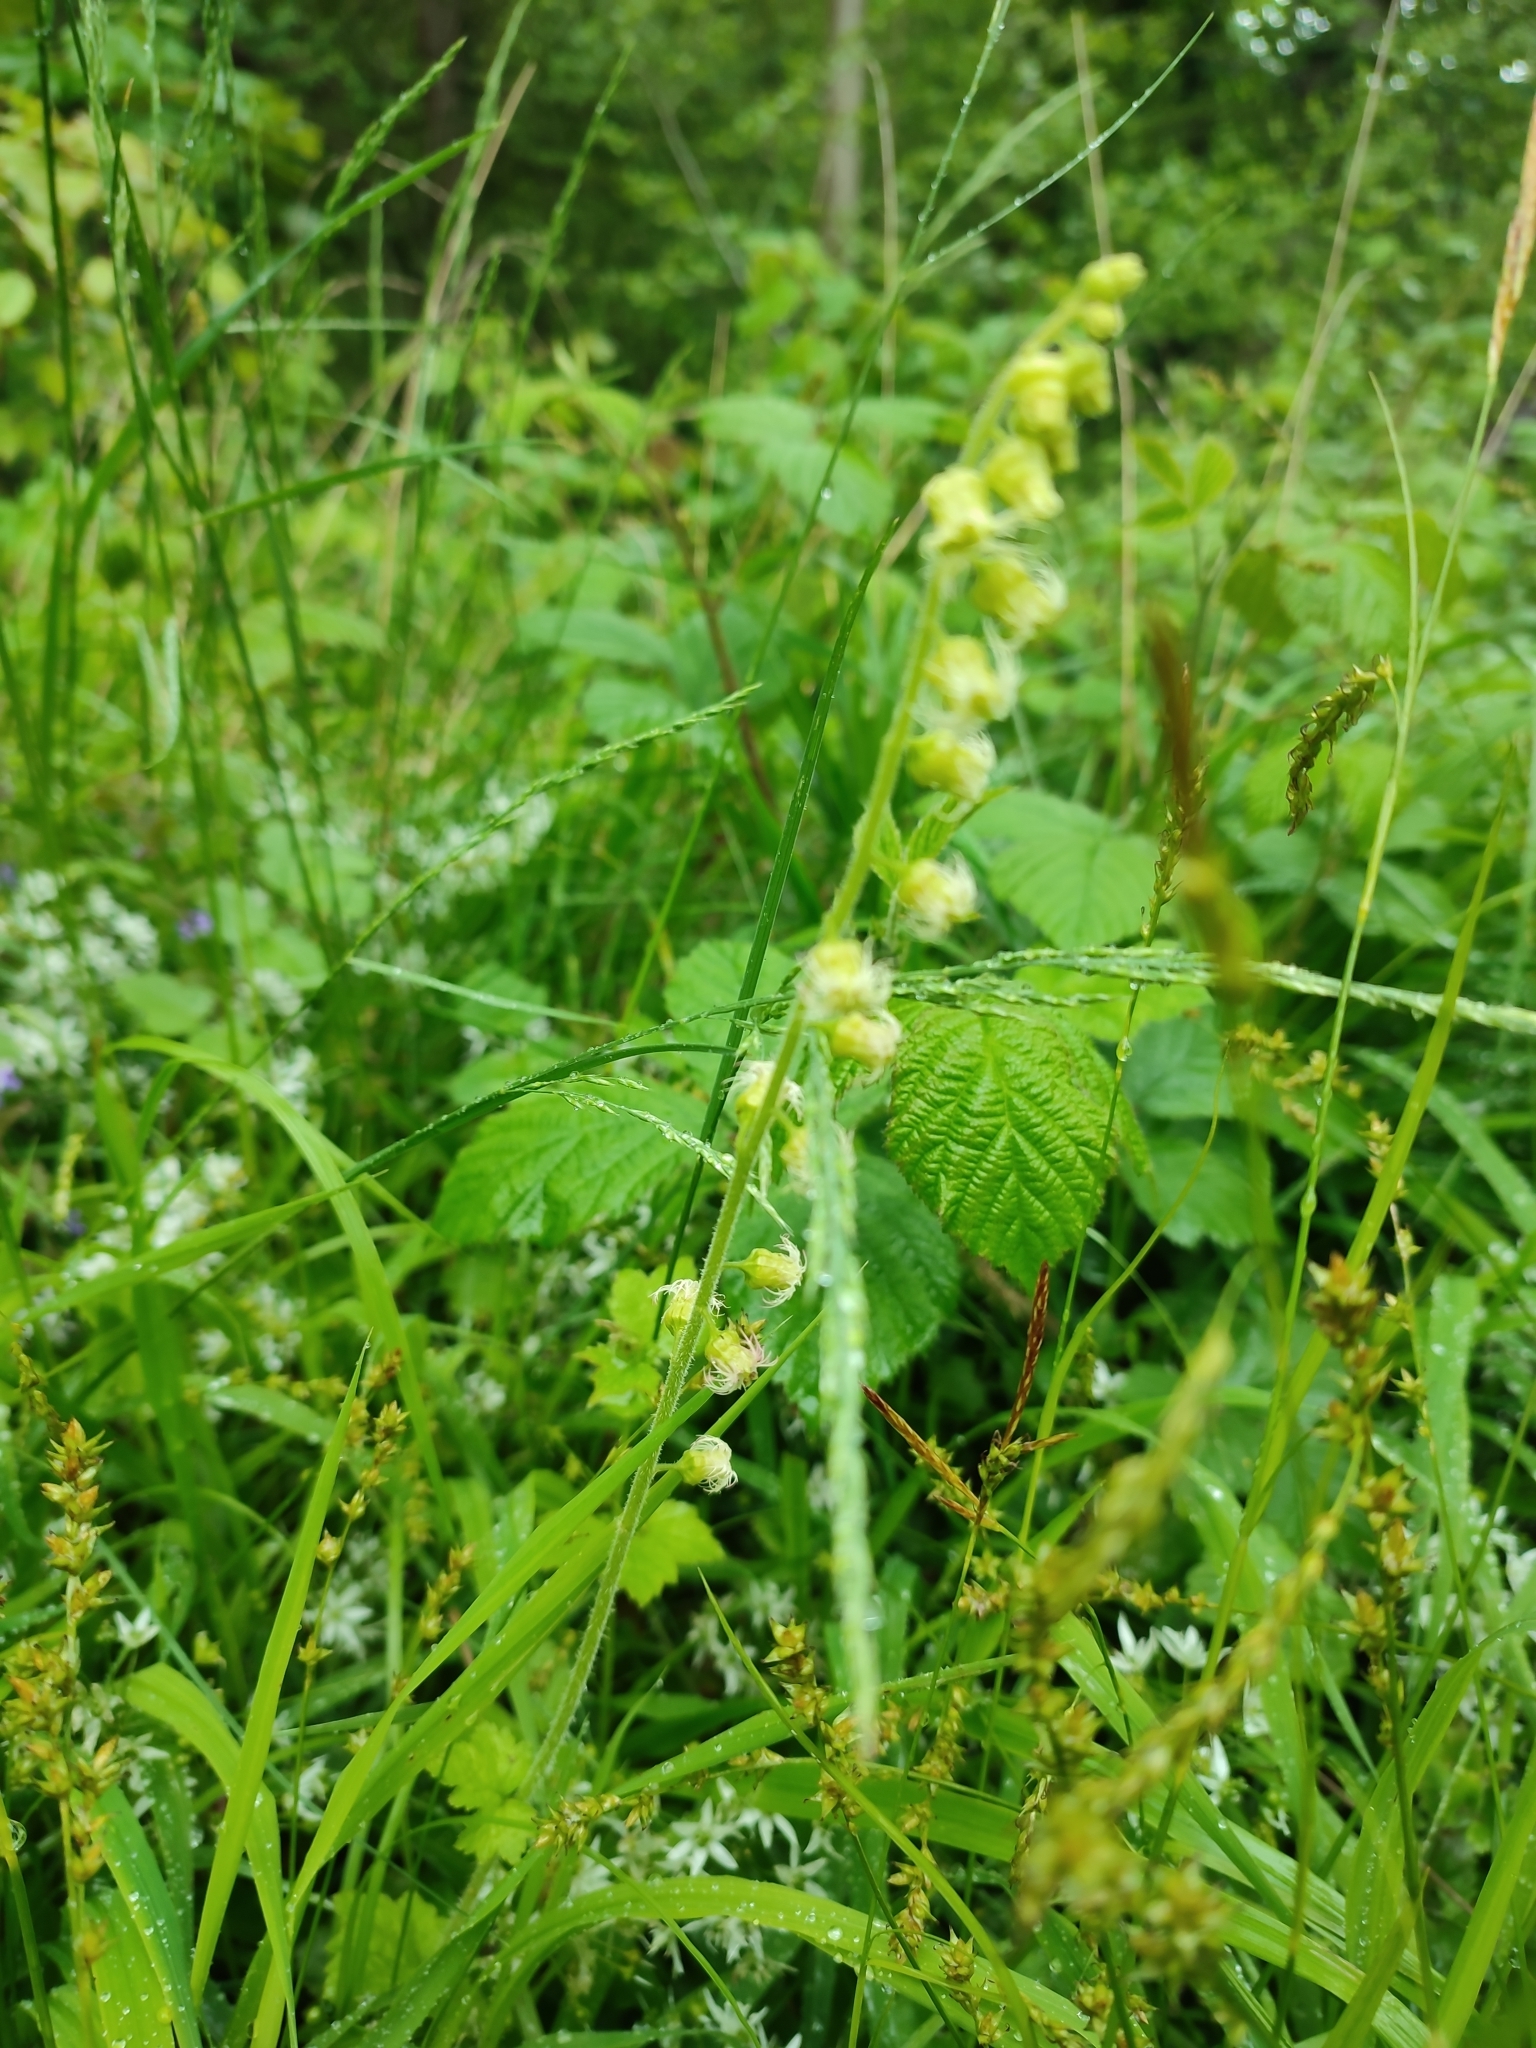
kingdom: Plantae
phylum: Tracheophyta
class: Magnoliopsida
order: Saxifragales
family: Saxifragaceae
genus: Tellima
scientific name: Tellima grandiflora
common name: Fringecups
